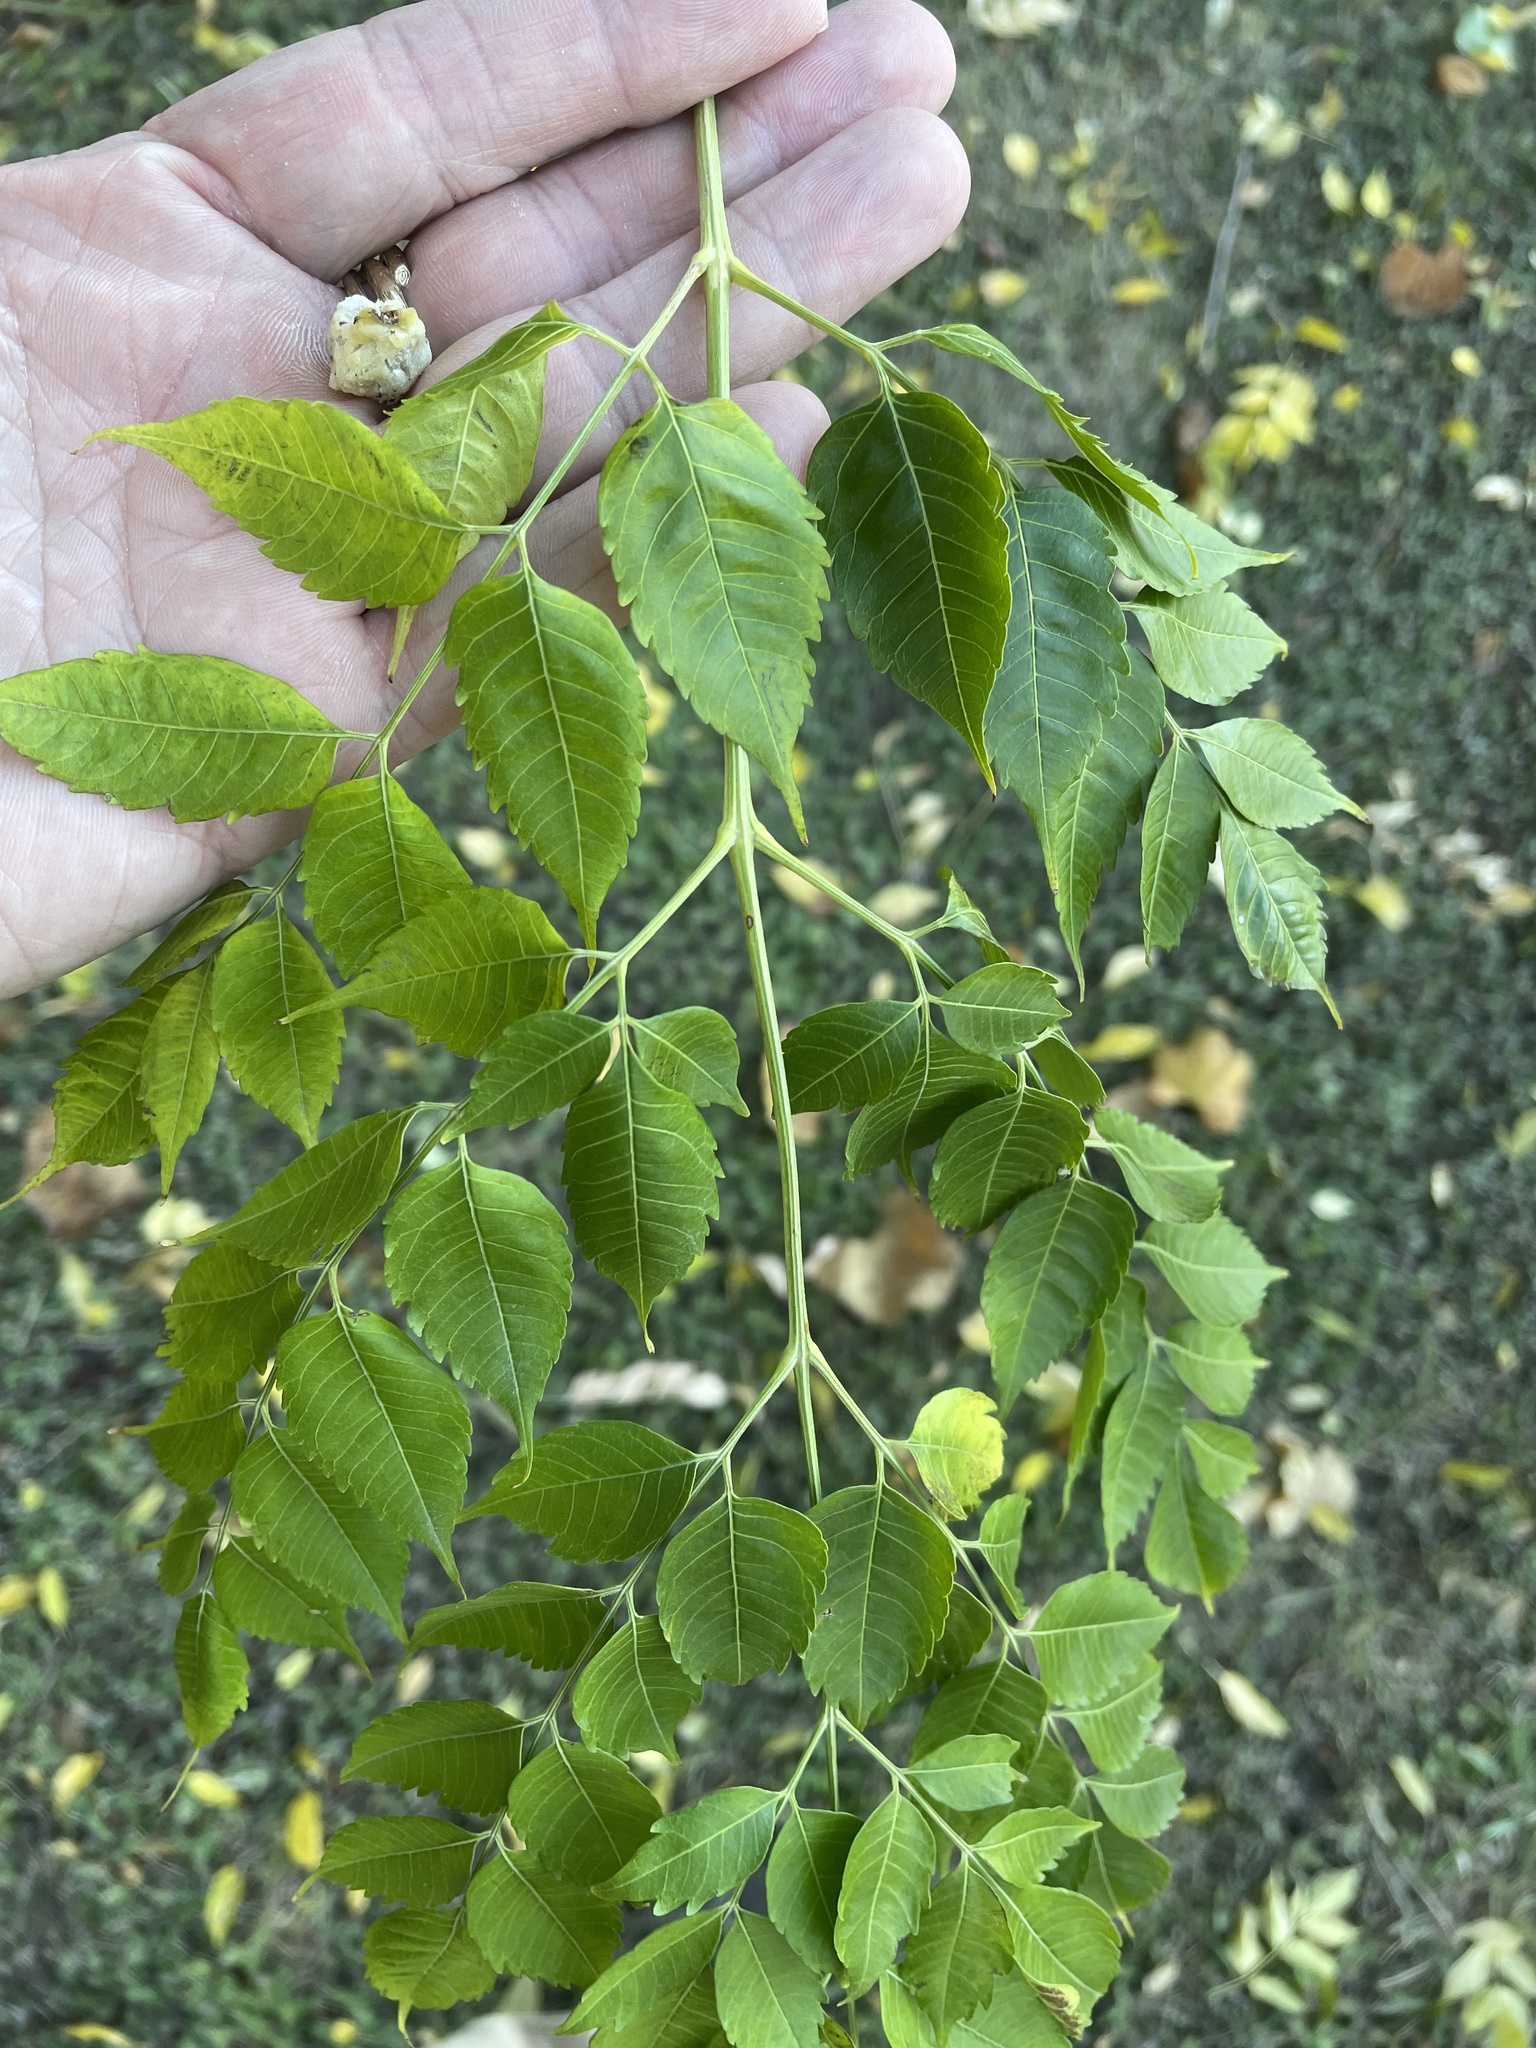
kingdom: Plantae
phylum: Tracheophyta
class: Magnoliopsida
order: Sapindales
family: Meliaceae
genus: Melia
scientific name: Melia azedarach
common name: Chinaberrytree
